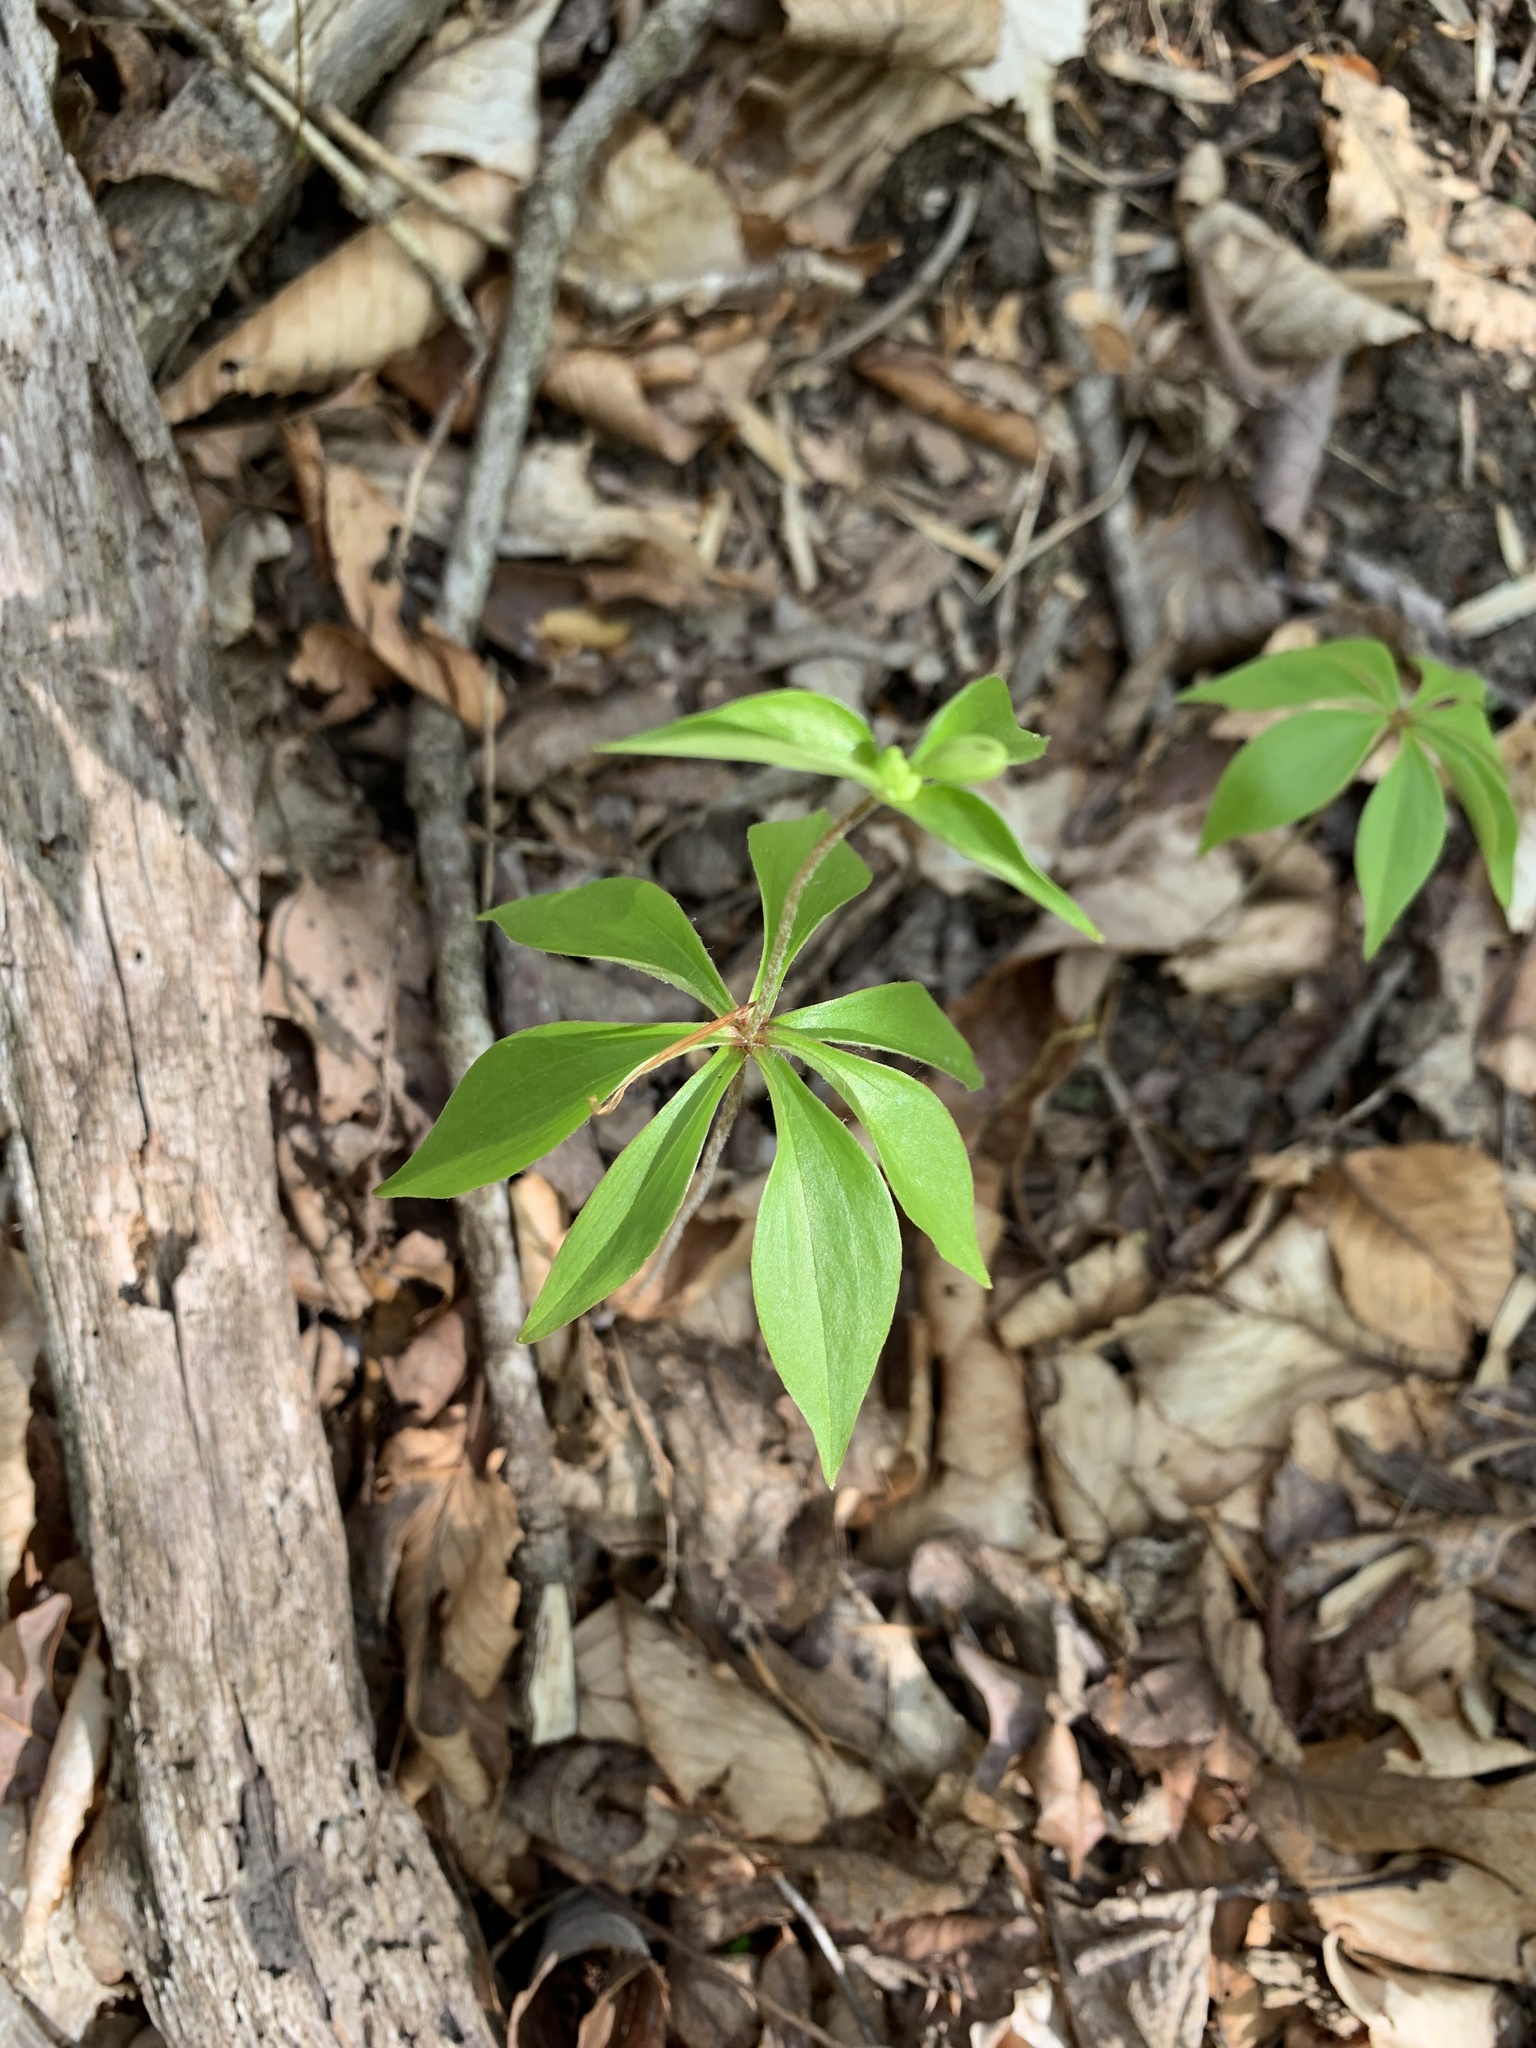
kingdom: Plantae
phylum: Tracheophyta
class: Liliopsida
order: Liliales
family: Liliaceae
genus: Medeola
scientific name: Medeola virginiana
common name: Indian cucumber-root
